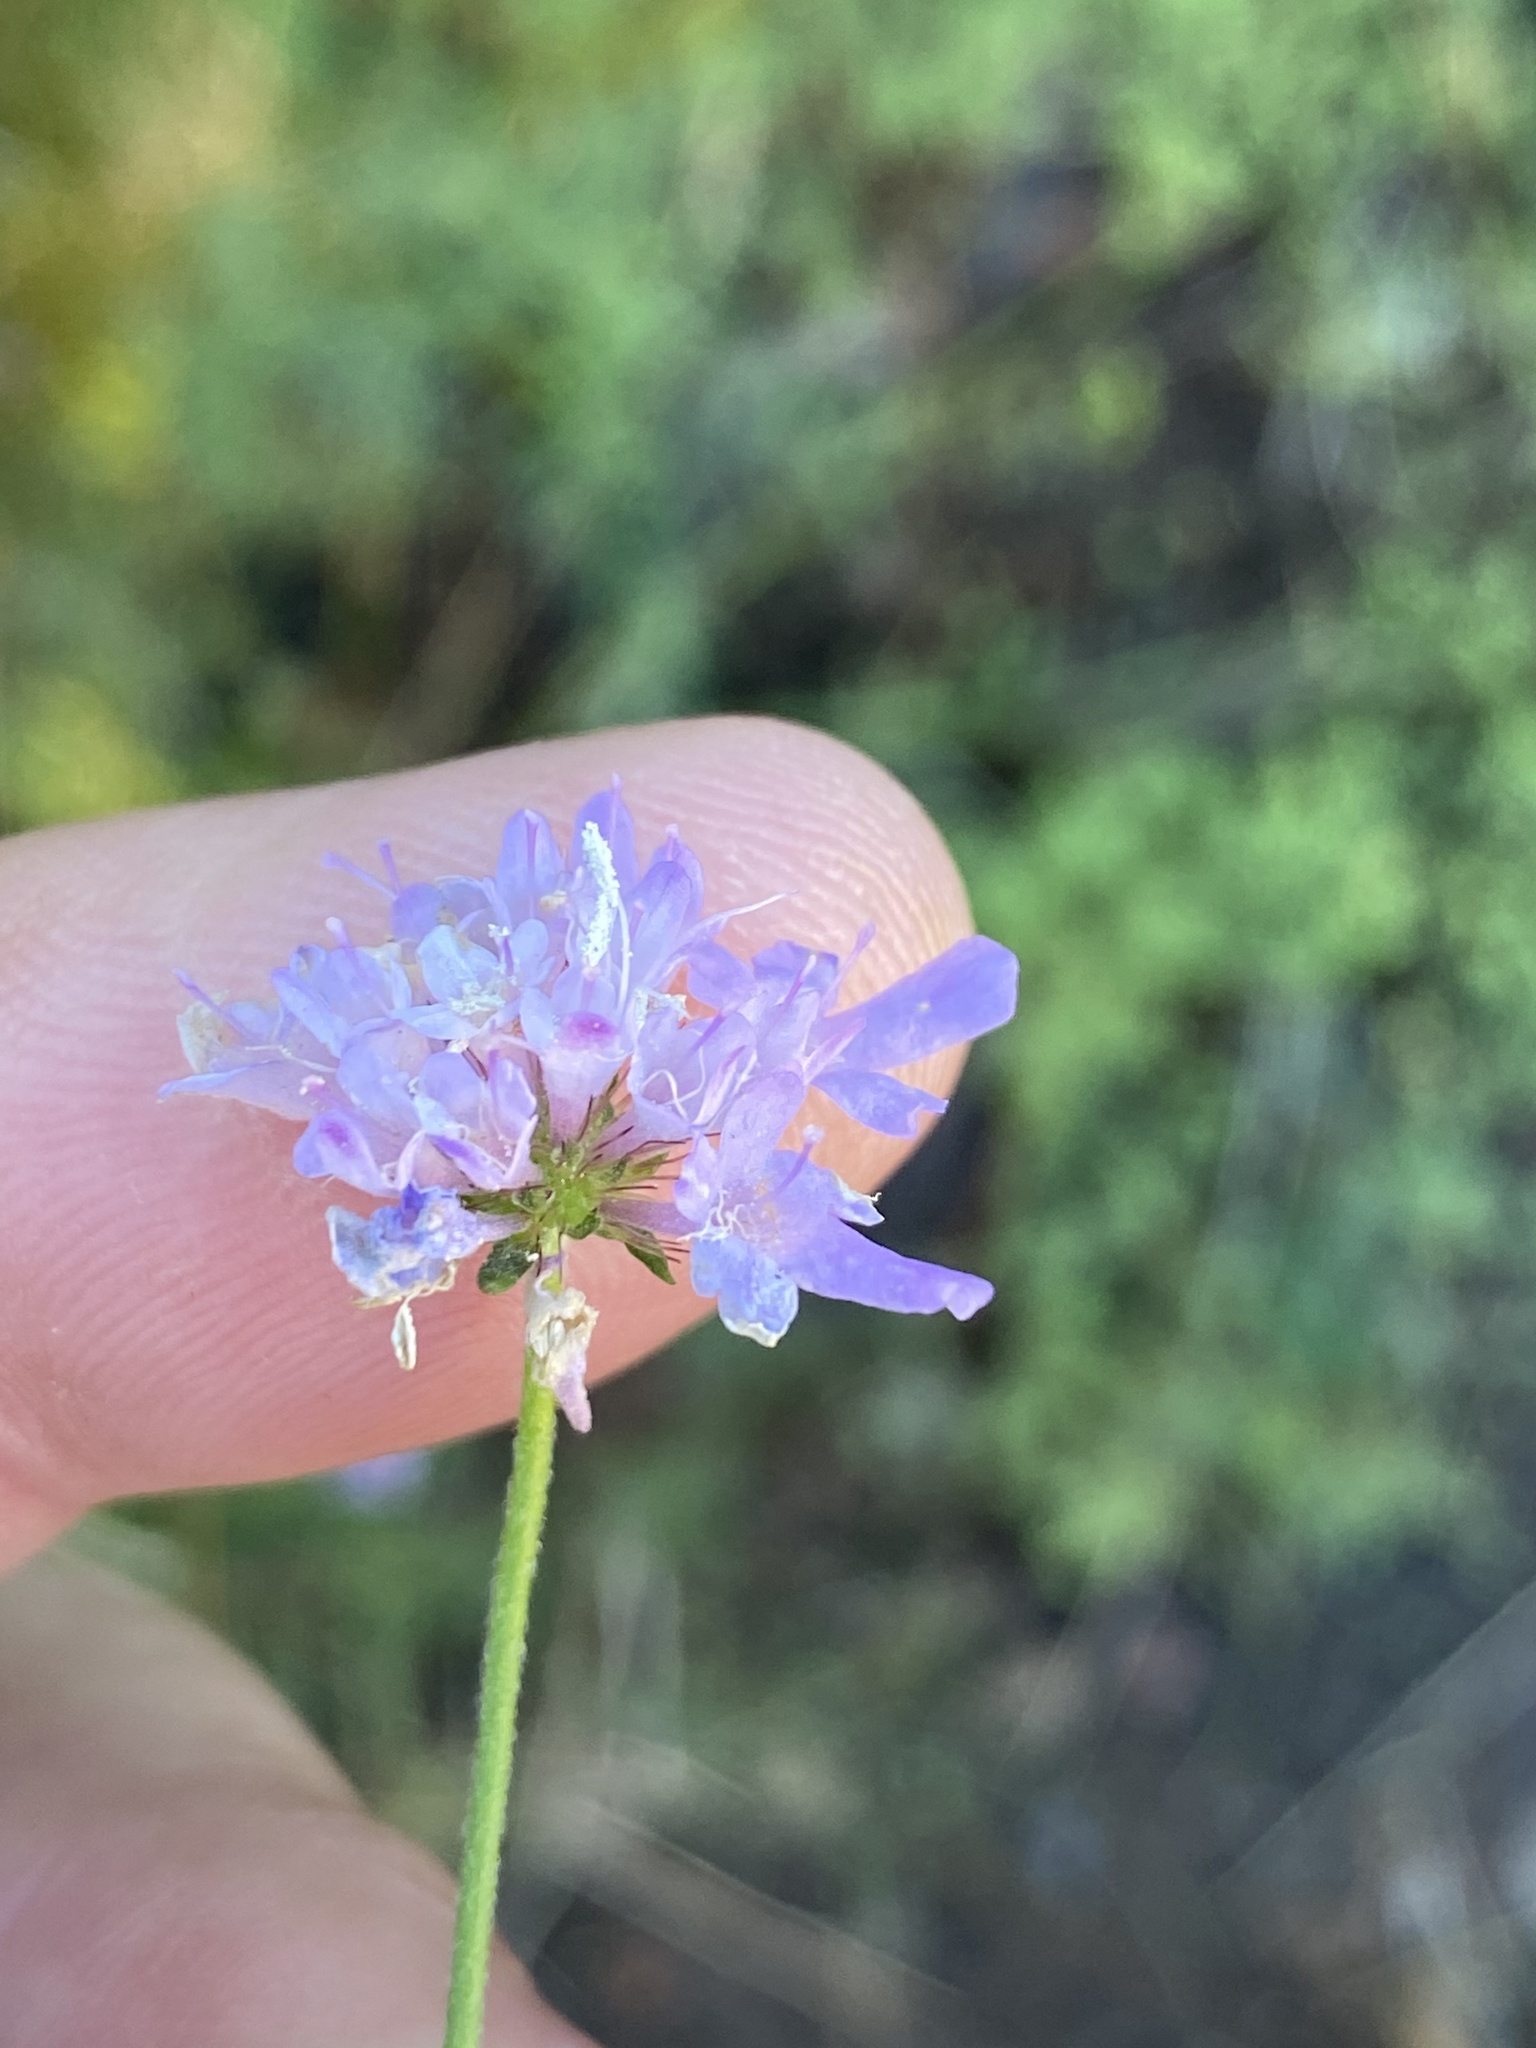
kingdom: Plantae
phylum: Tracheophyta
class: Magnoliopsida
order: Dipsacales
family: Caprifoliaceae
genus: Scabiosa
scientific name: Scabiosa columbaria
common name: Small scabious
